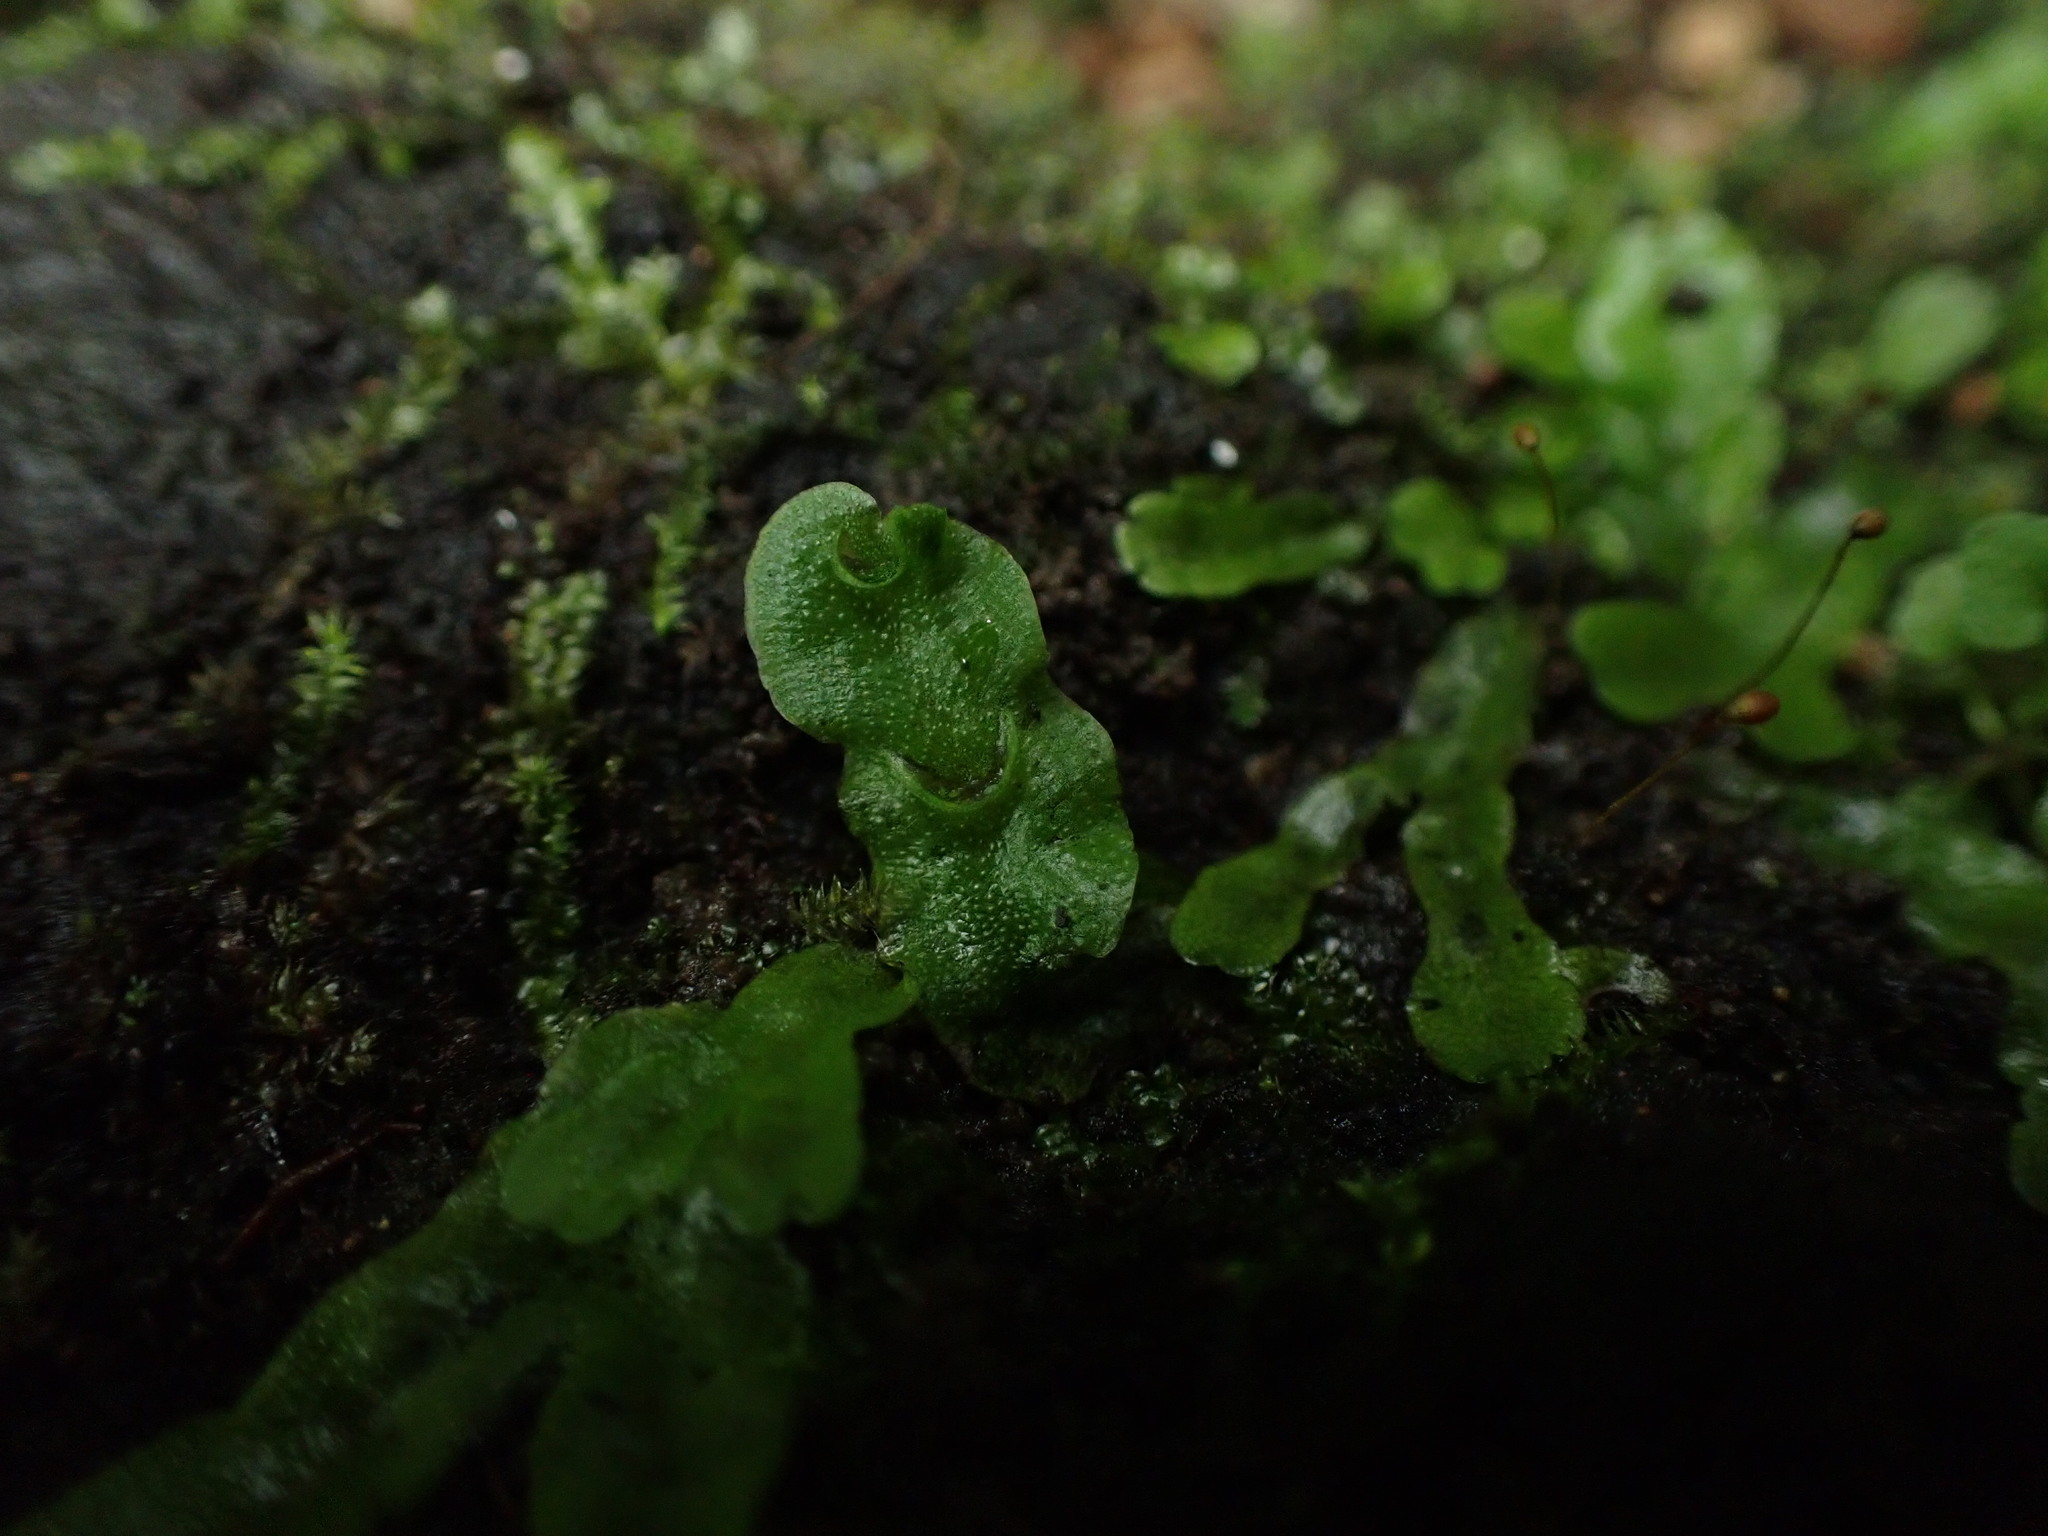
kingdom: Plantae
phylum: Marchantiophyta
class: Marchantiopsida
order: Lunulariales
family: Lunulariaceae
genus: Lunularia
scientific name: Lunularia cruciata
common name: Crescent-cup liverwort
